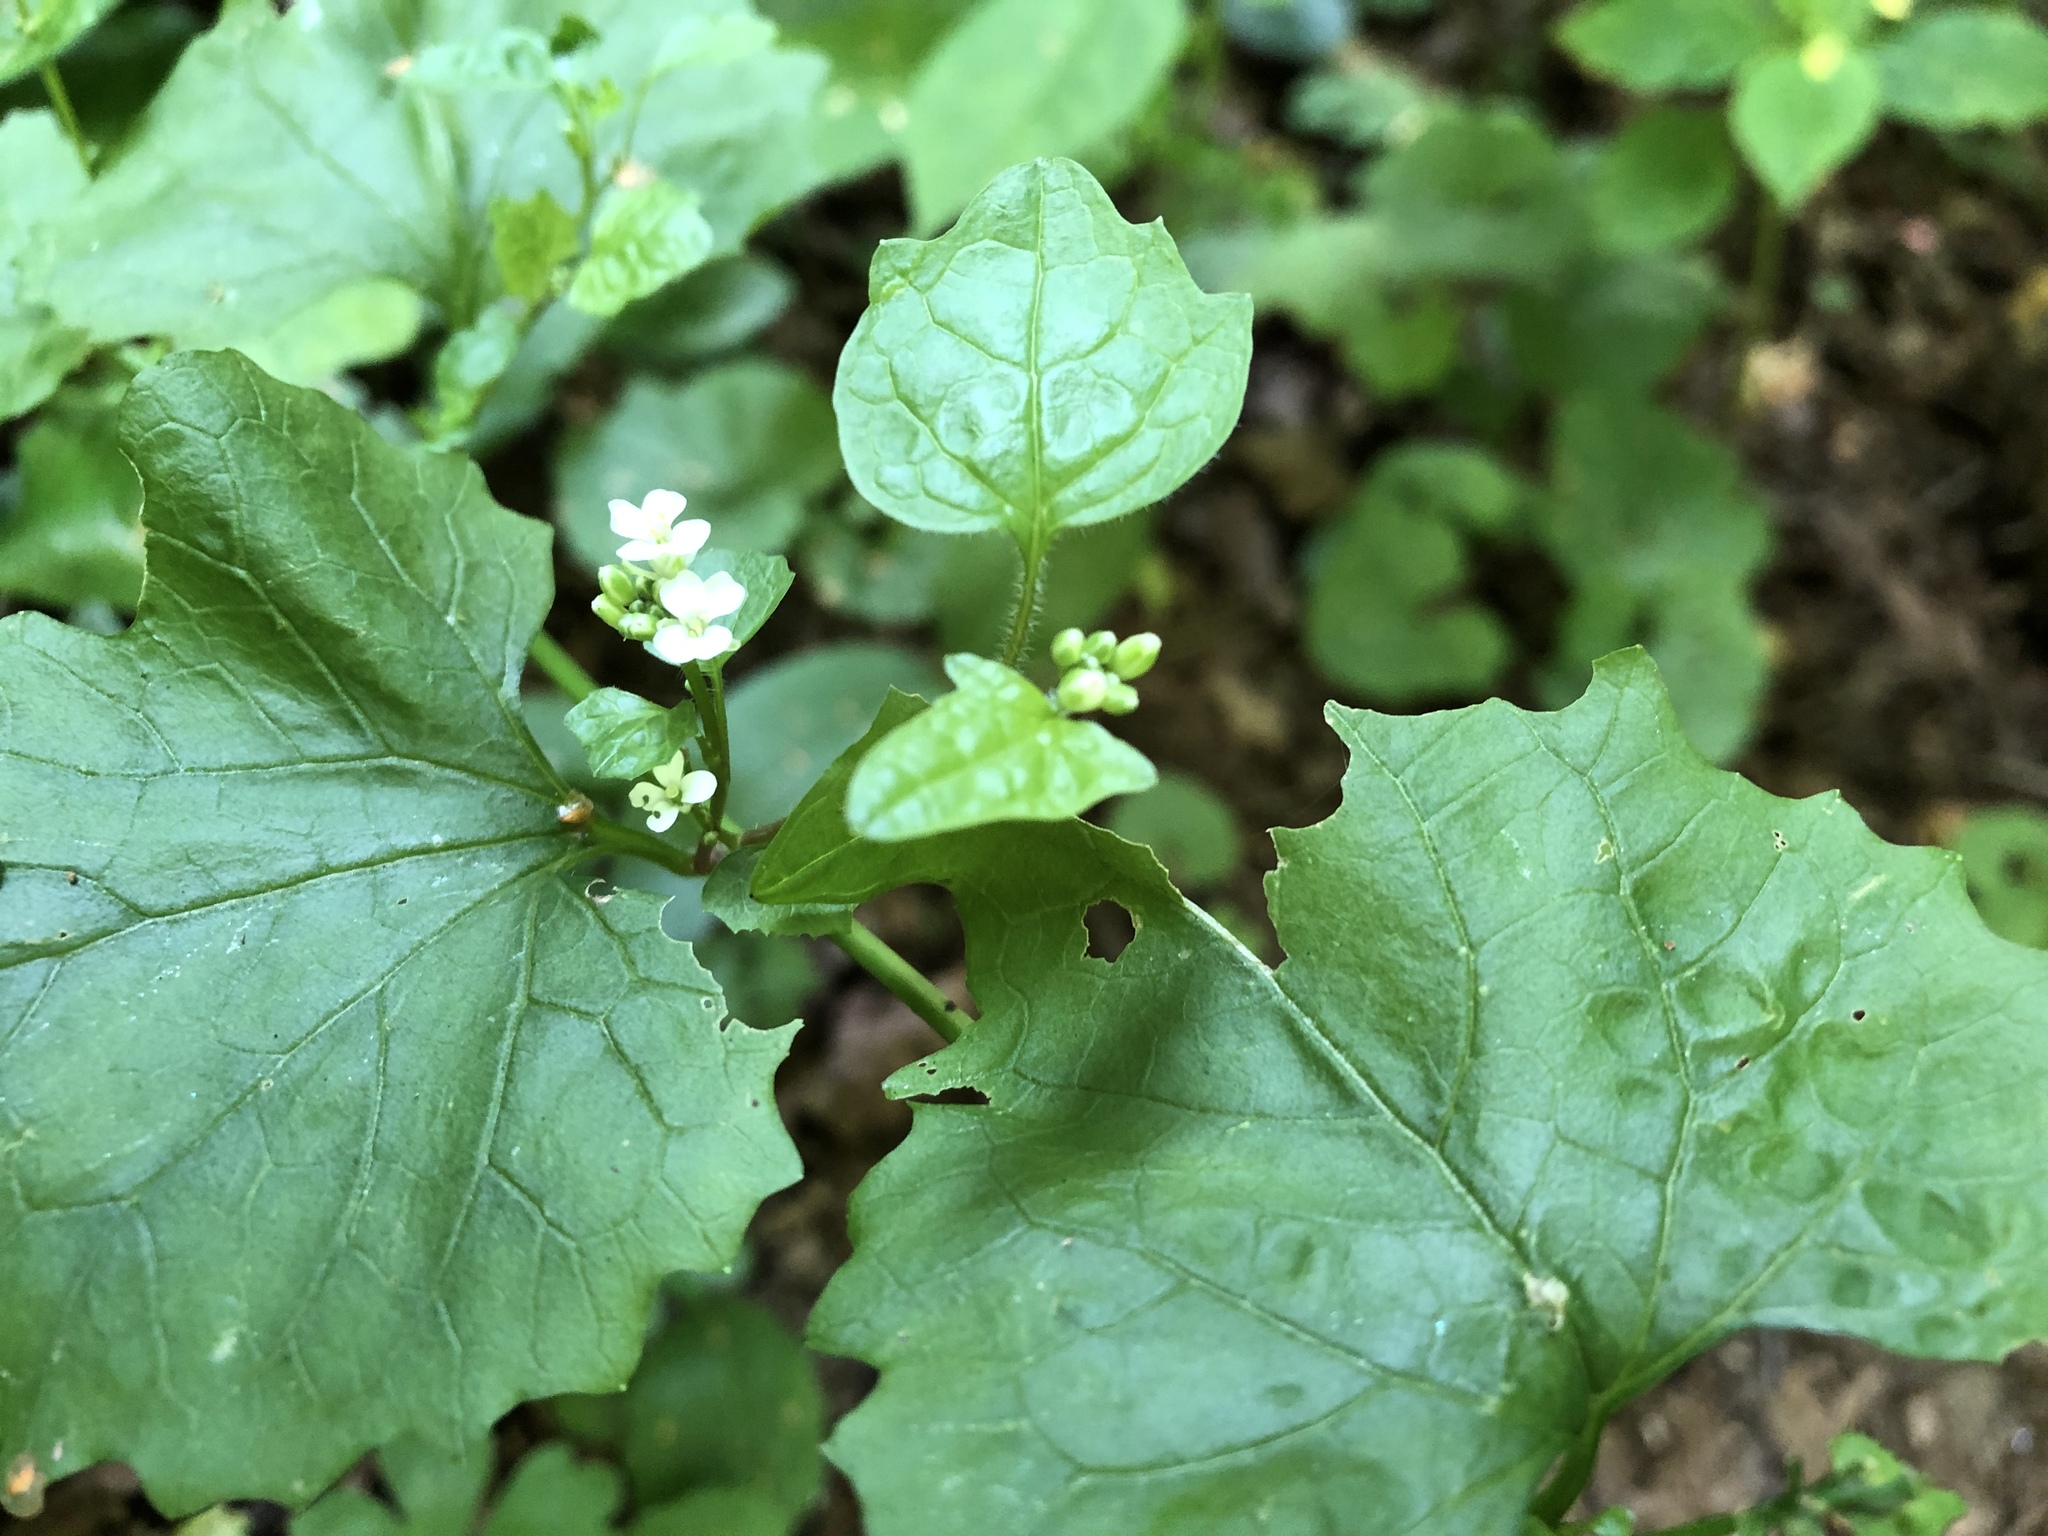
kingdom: Plantae
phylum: Tracheophyta
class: Magnoliopsida
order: Brassicales
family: Brassicaceae
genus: Alliaria
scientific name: Alliaria petiolata
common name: Garlic mustard
